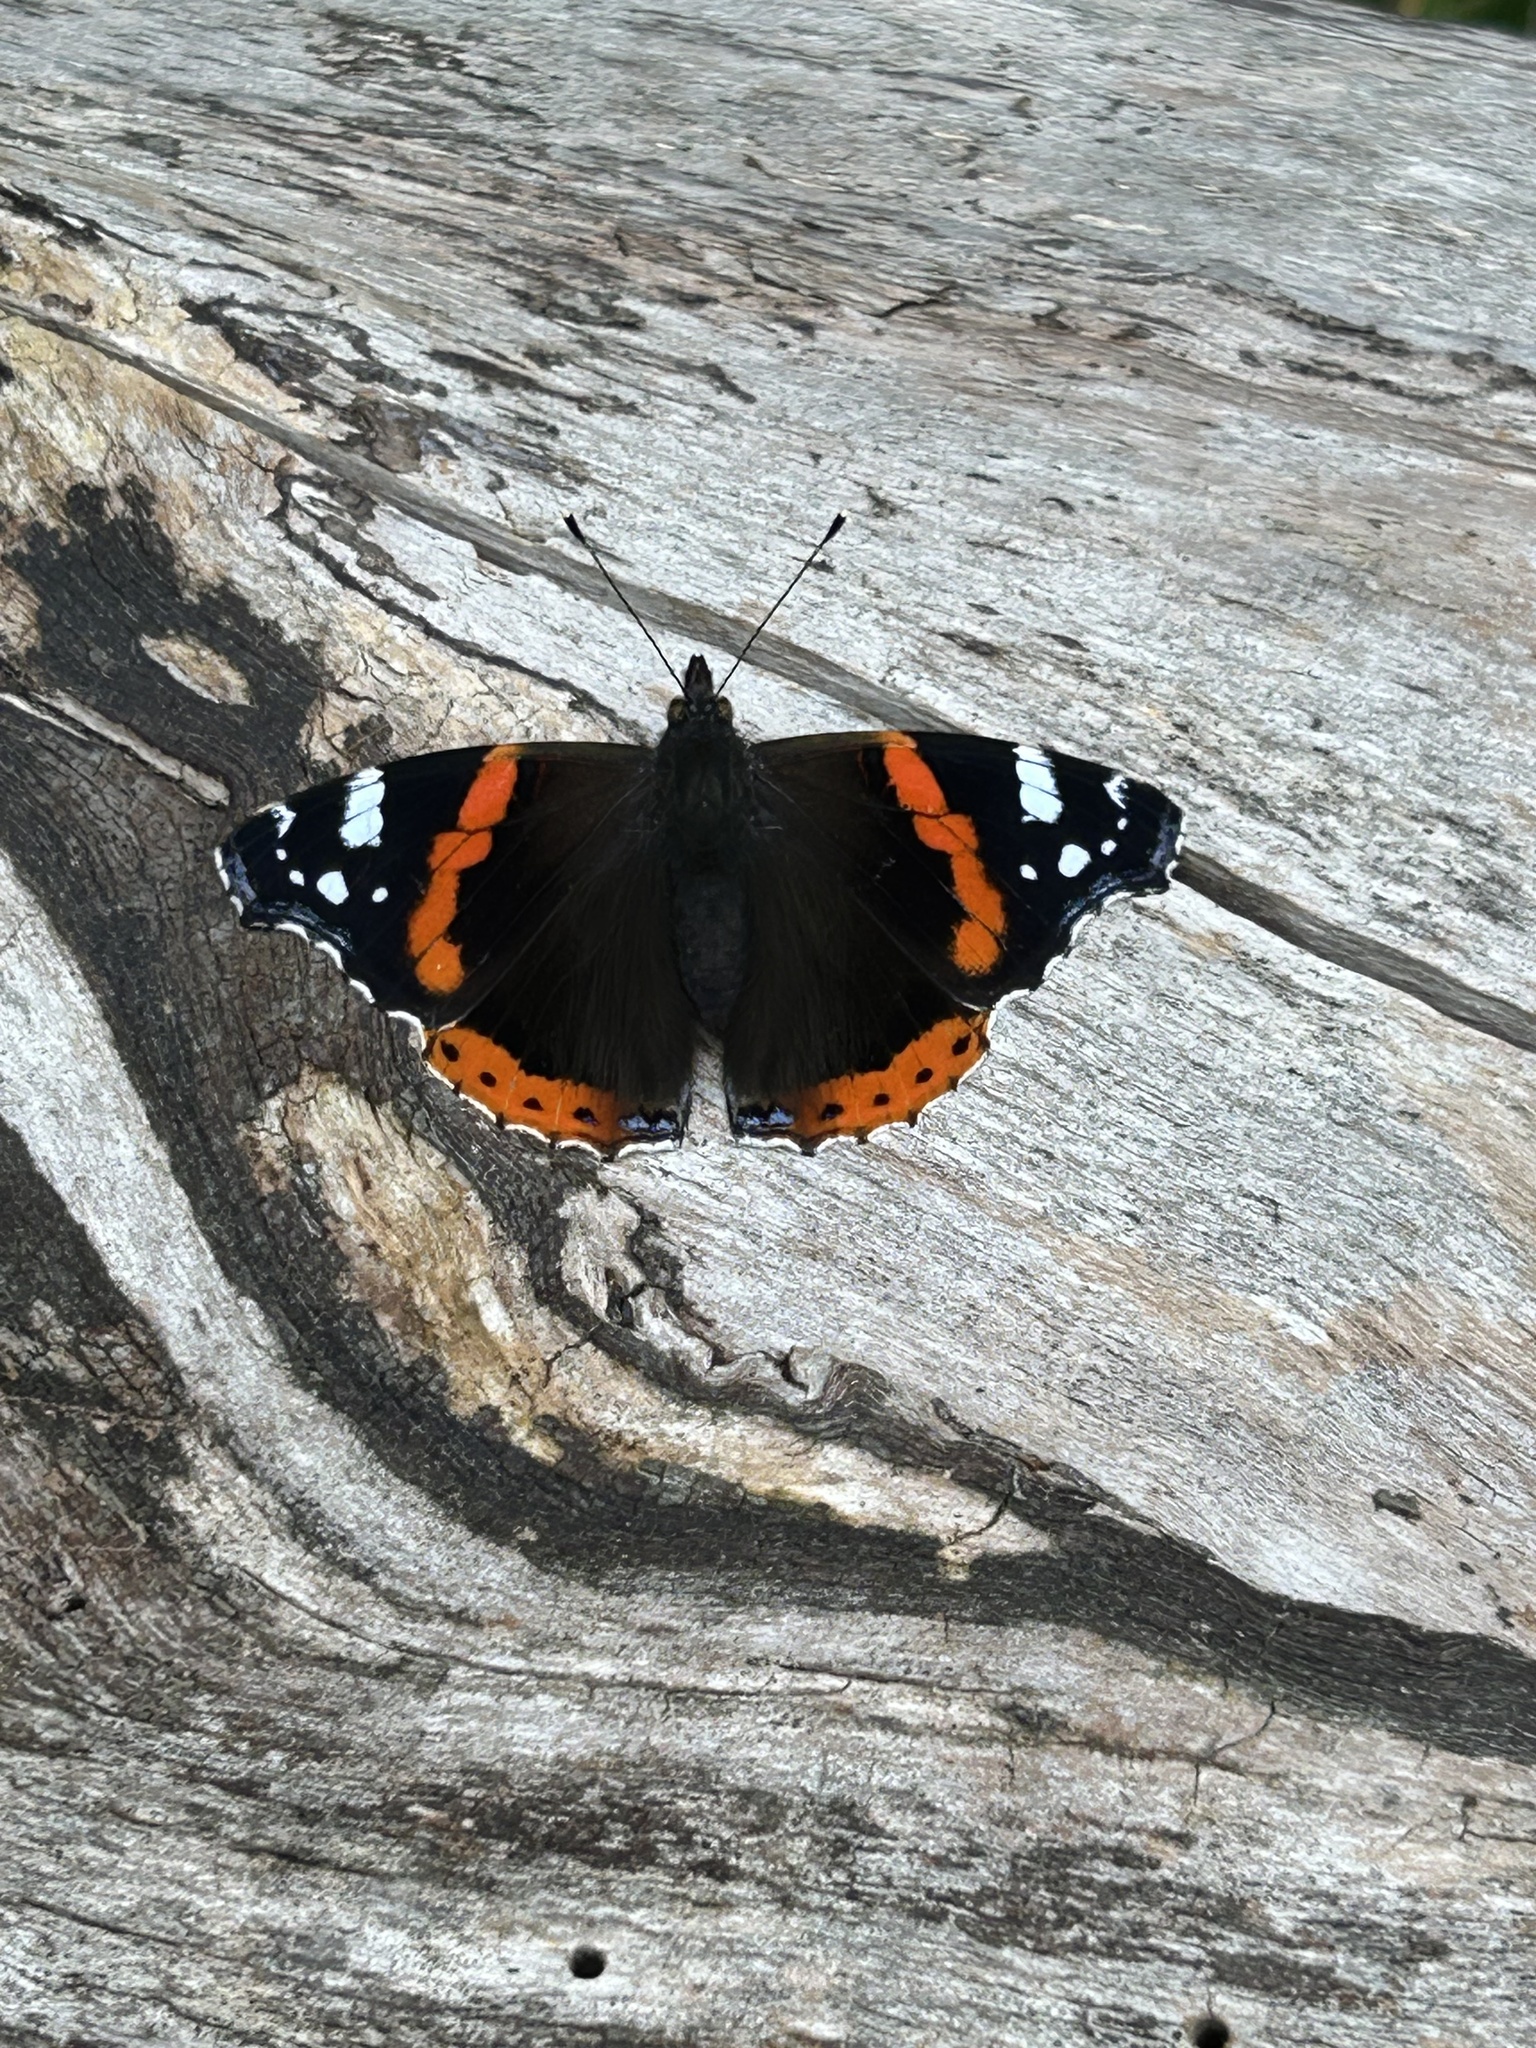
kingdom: Animalia
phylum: Arthropoda
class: Insecta
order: Lepidoptera
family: Nymphalidae
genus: Vanessa
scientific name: Vanessa atalanta
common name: Red admiral
